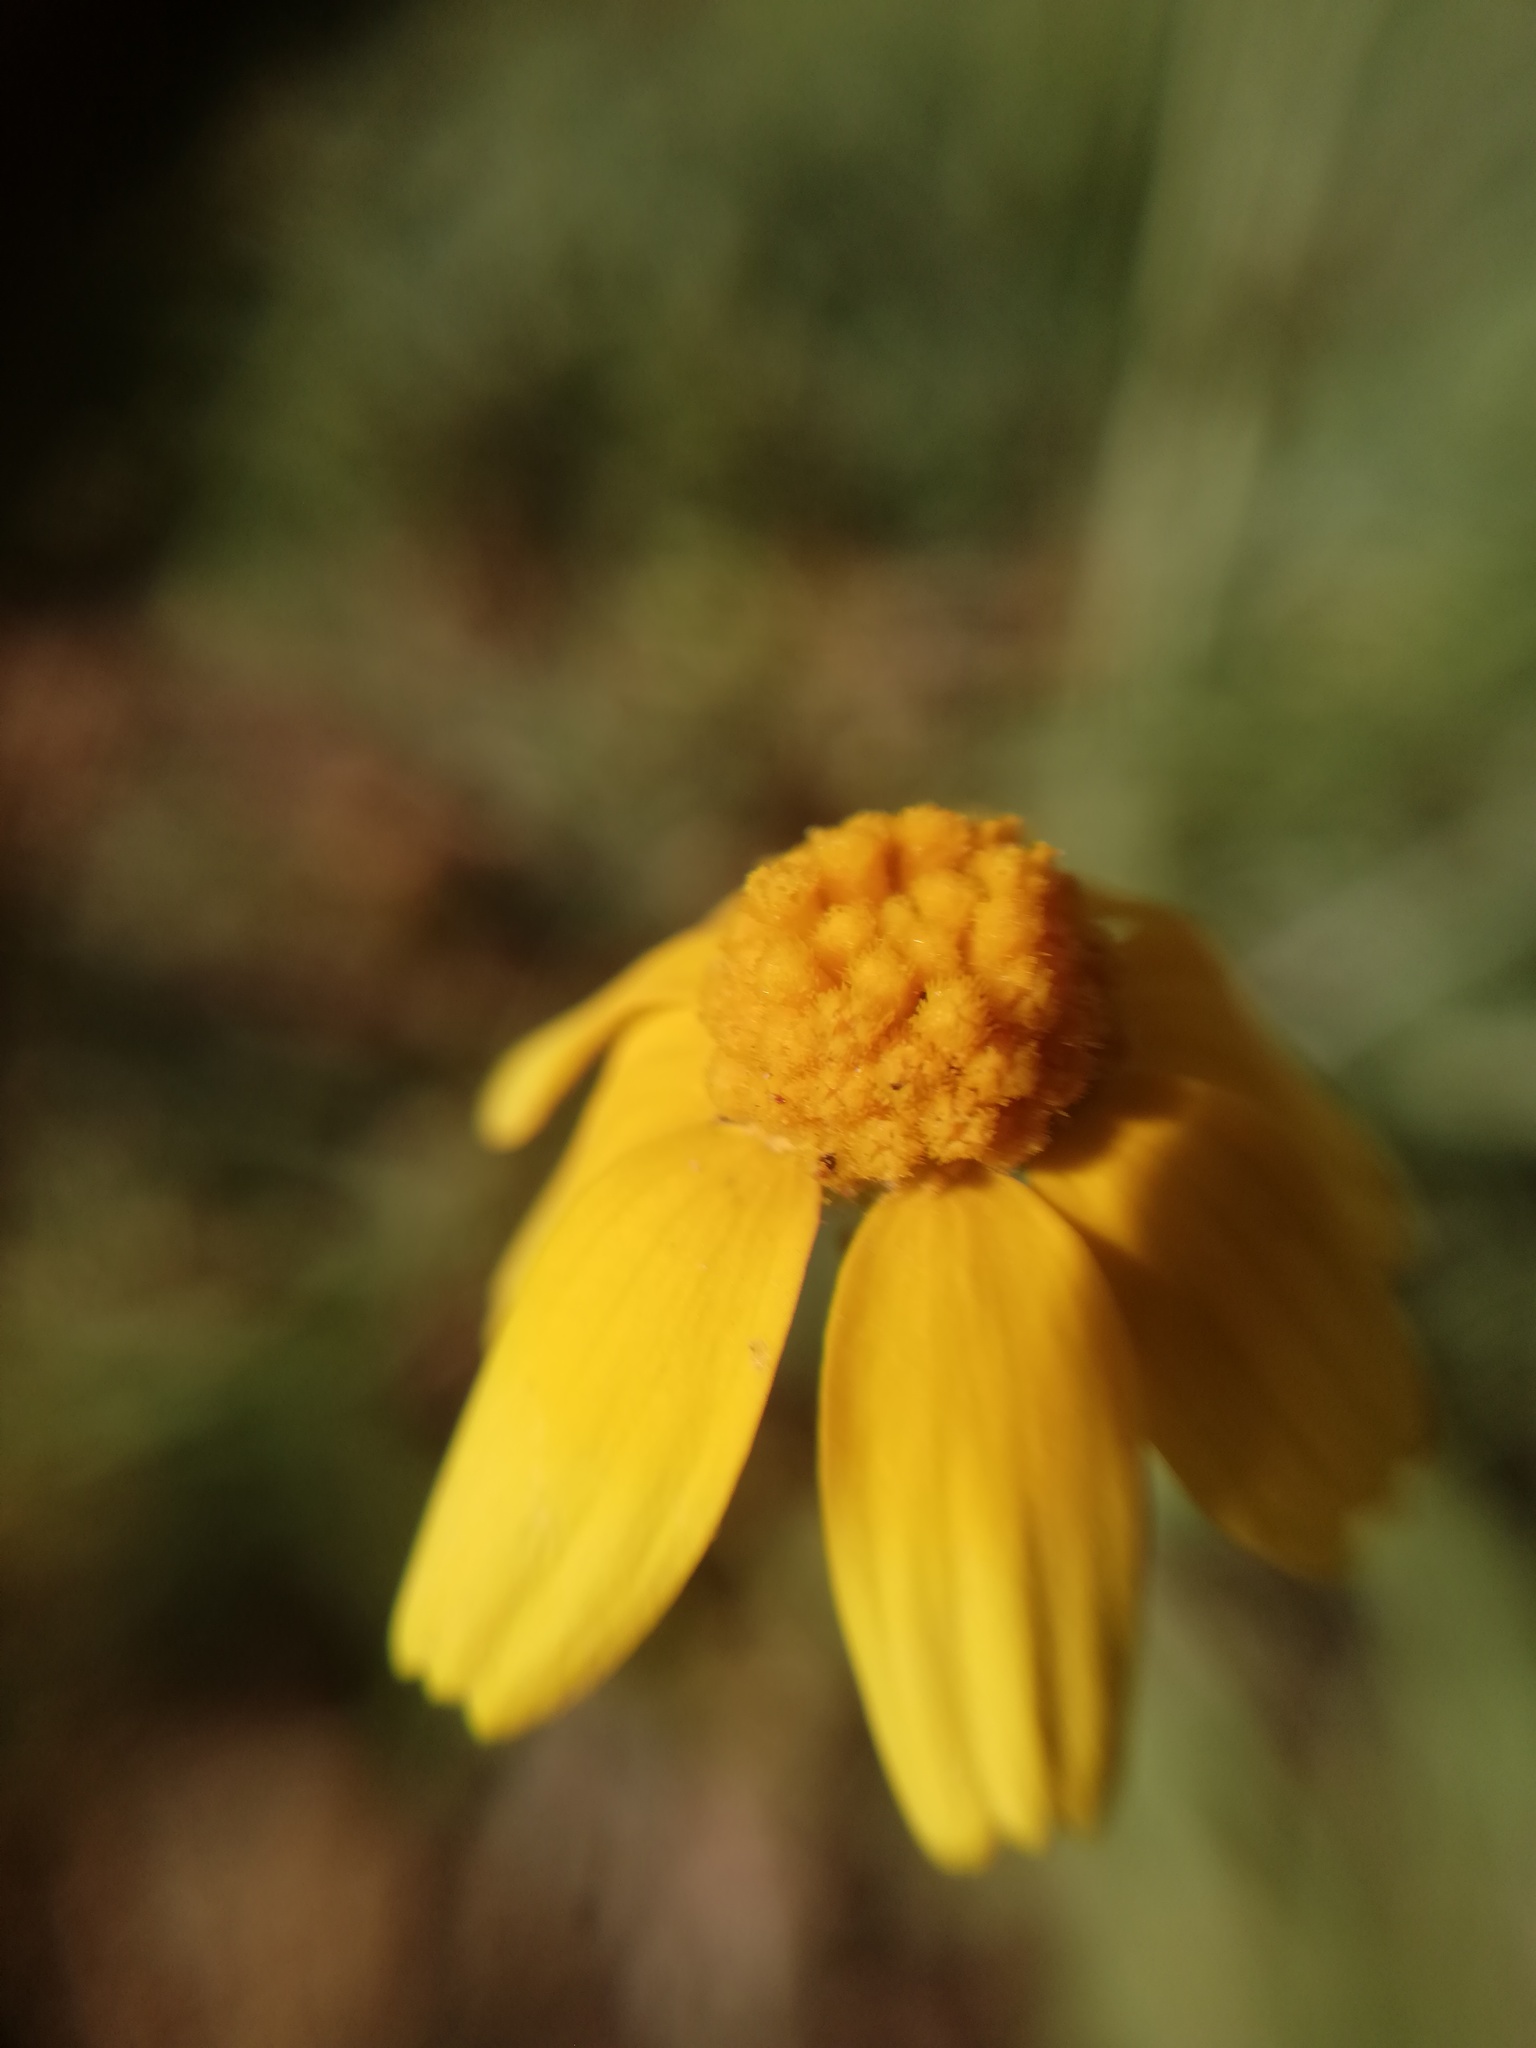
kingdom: Plantae
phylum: Tracheophyta
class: Magnoliopsida
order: Asterales
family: Asteraceae
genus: Tetraneuris
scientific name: Tetraneuris linearifolia
